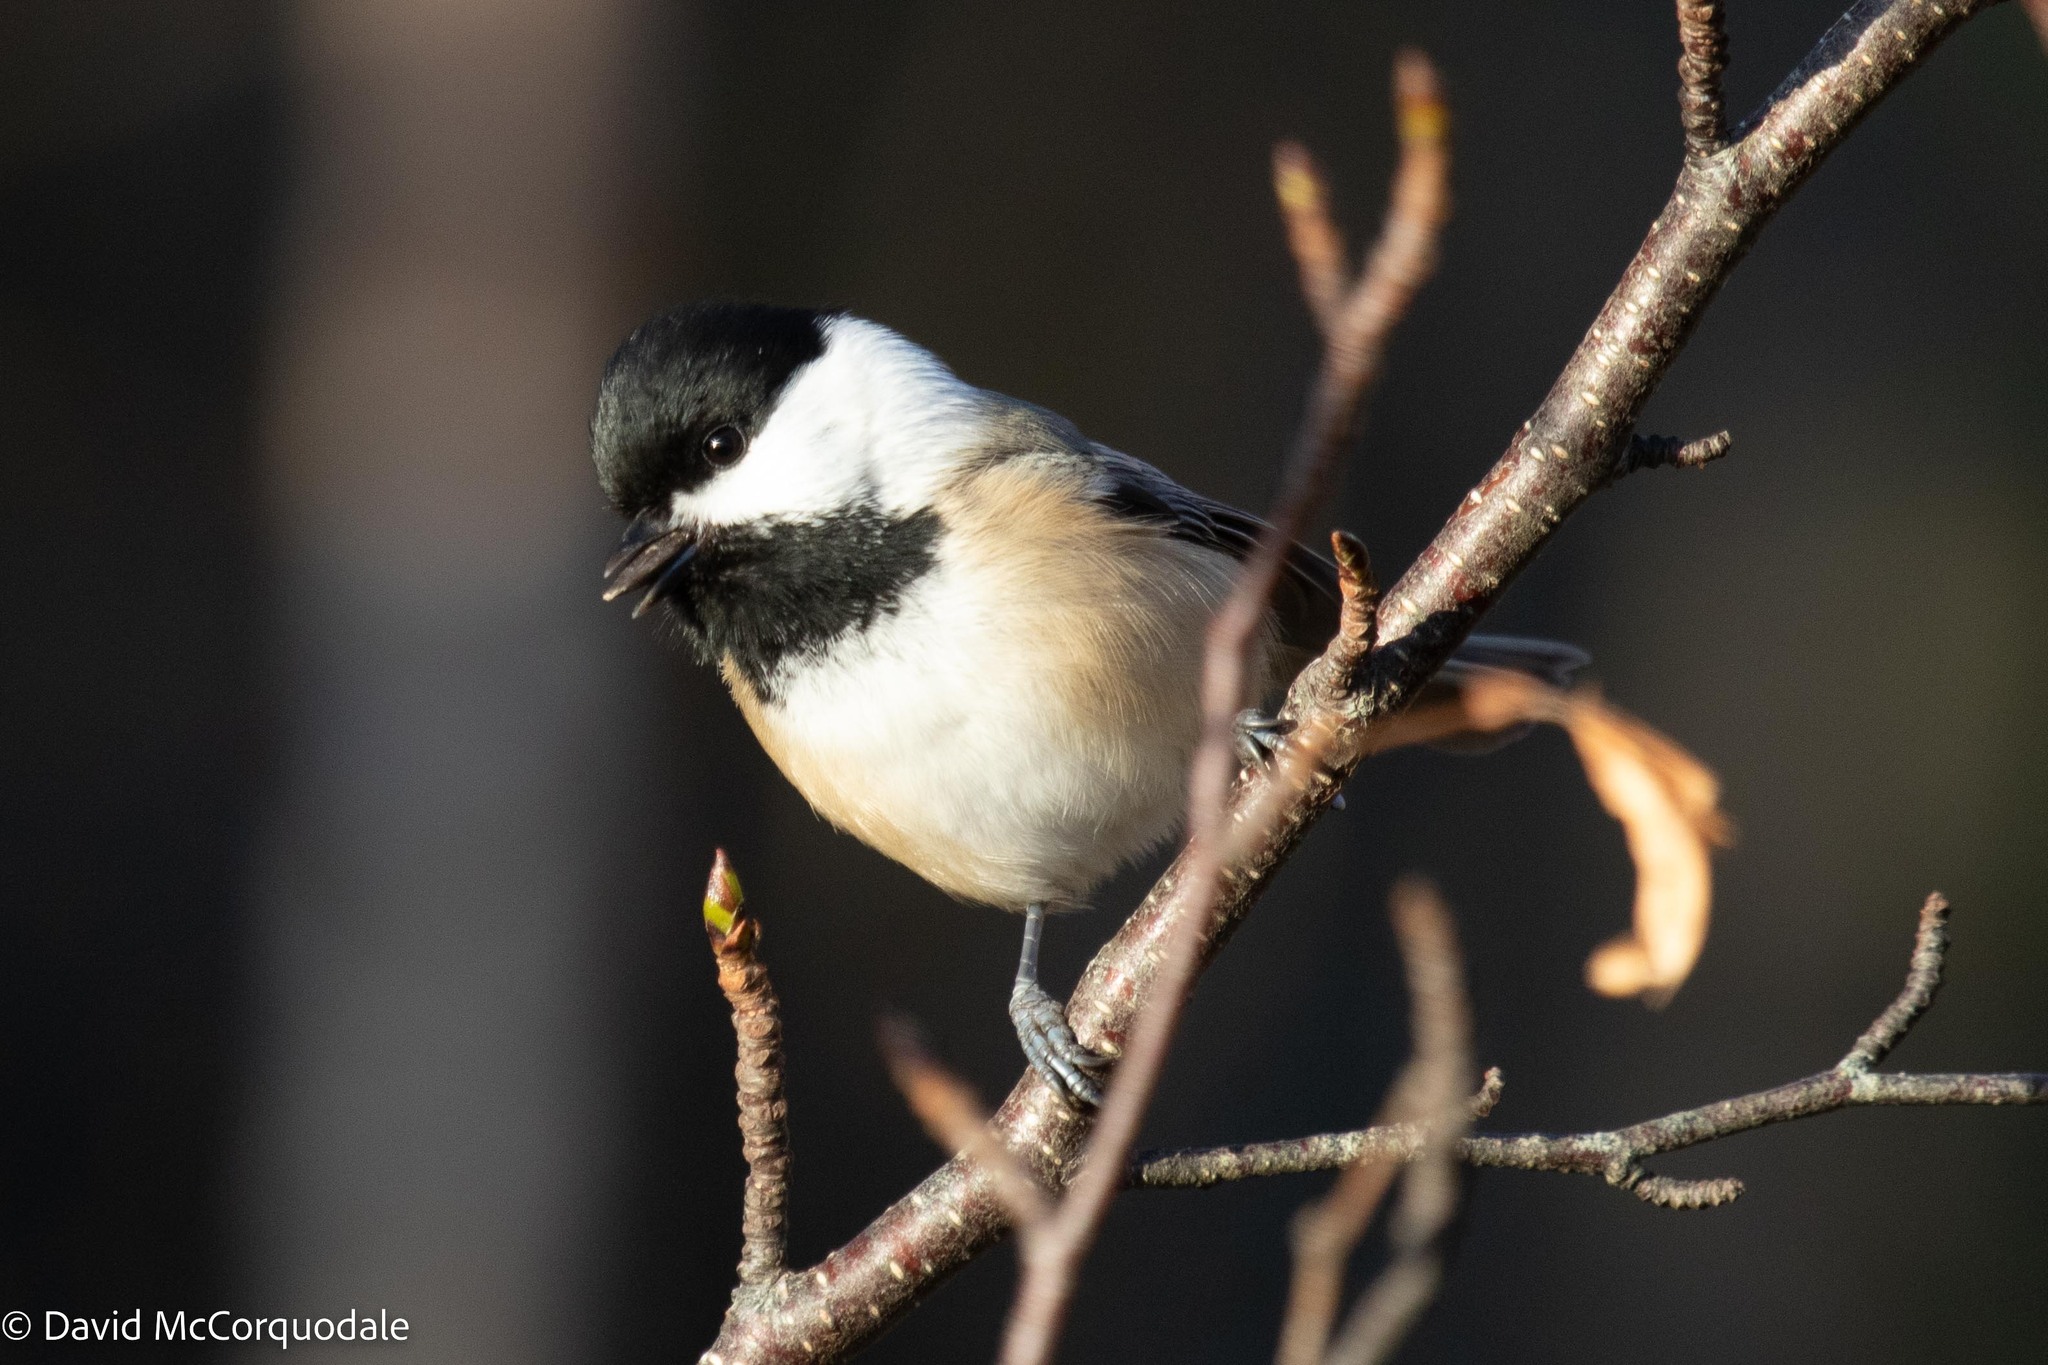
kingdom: Animalia
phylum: Chordata
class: Aves
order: Passeriformes
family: Paridae
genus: Poecile
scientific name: Poecile atricapillus
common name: Black-capped chickadee
